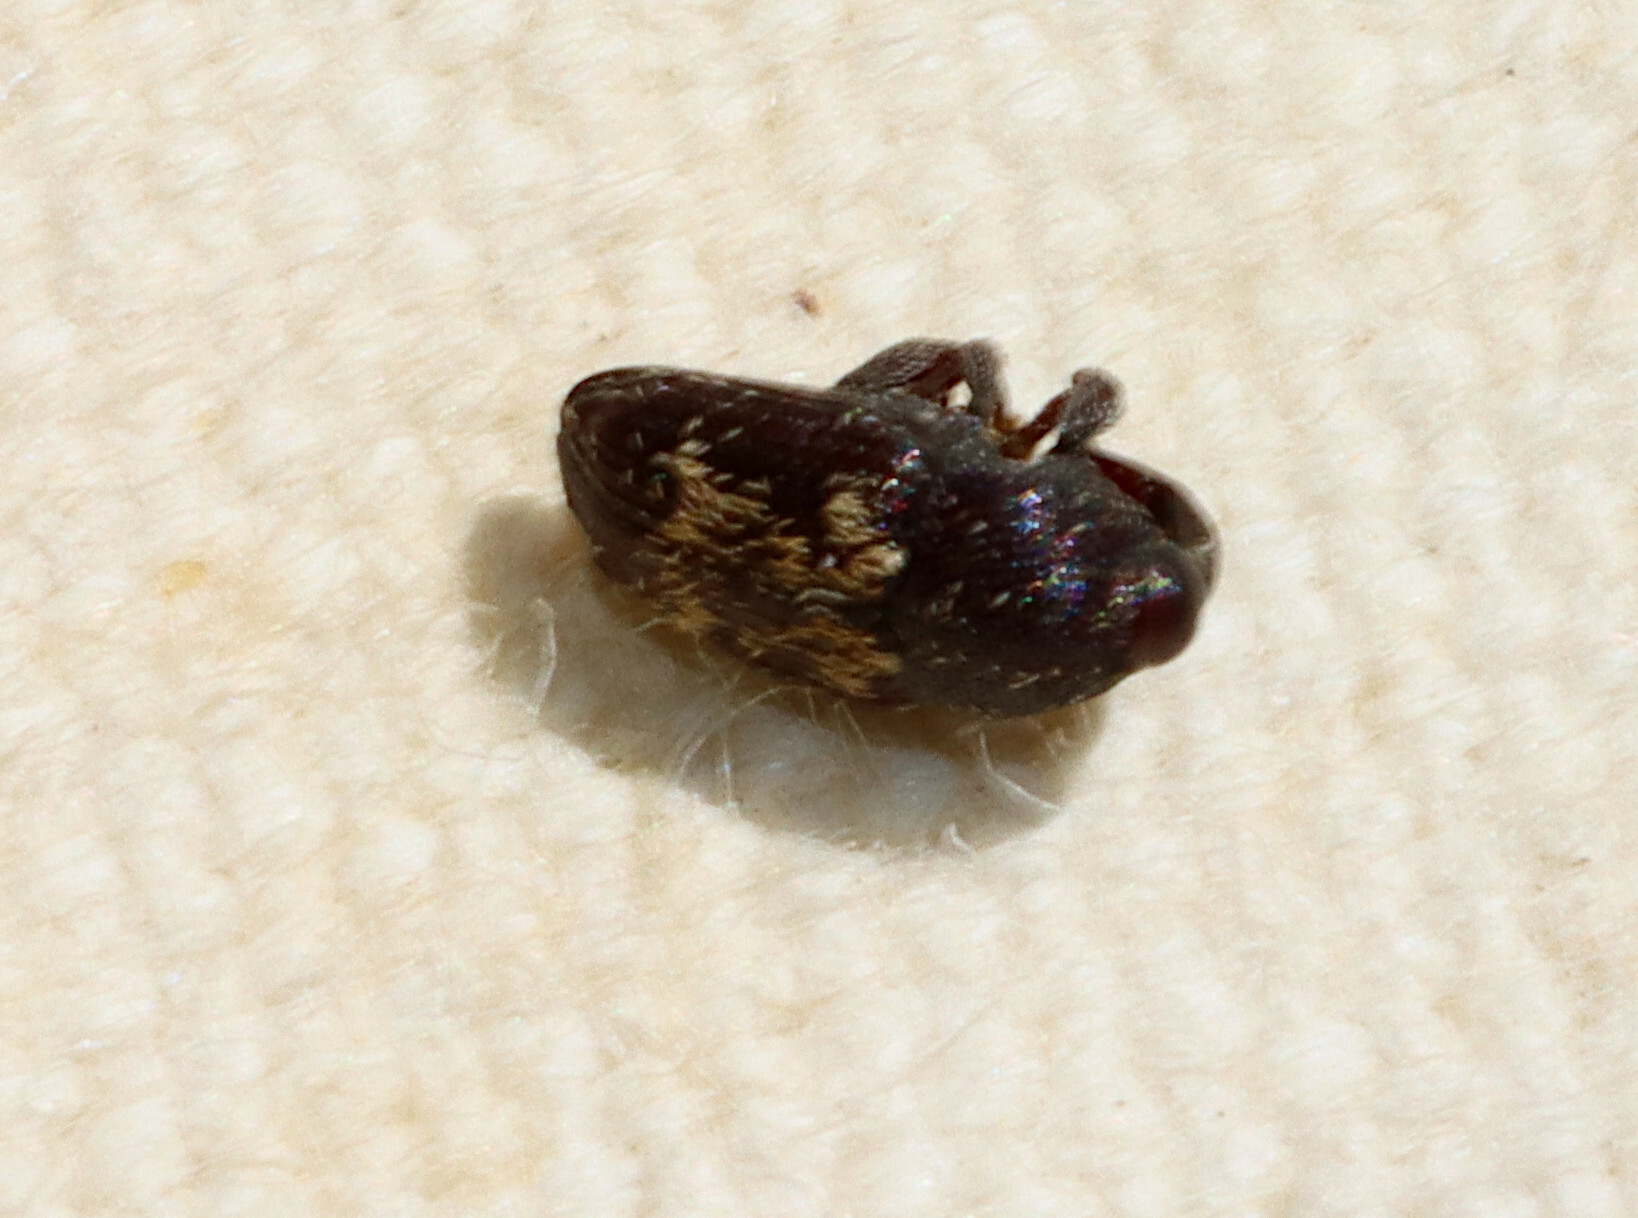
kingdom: Animalia
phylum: Arthropoda
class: Insecta
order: Coleoptera
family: Curculionidae
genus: Glyptobaris
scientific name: Glyptobaris lecontei
